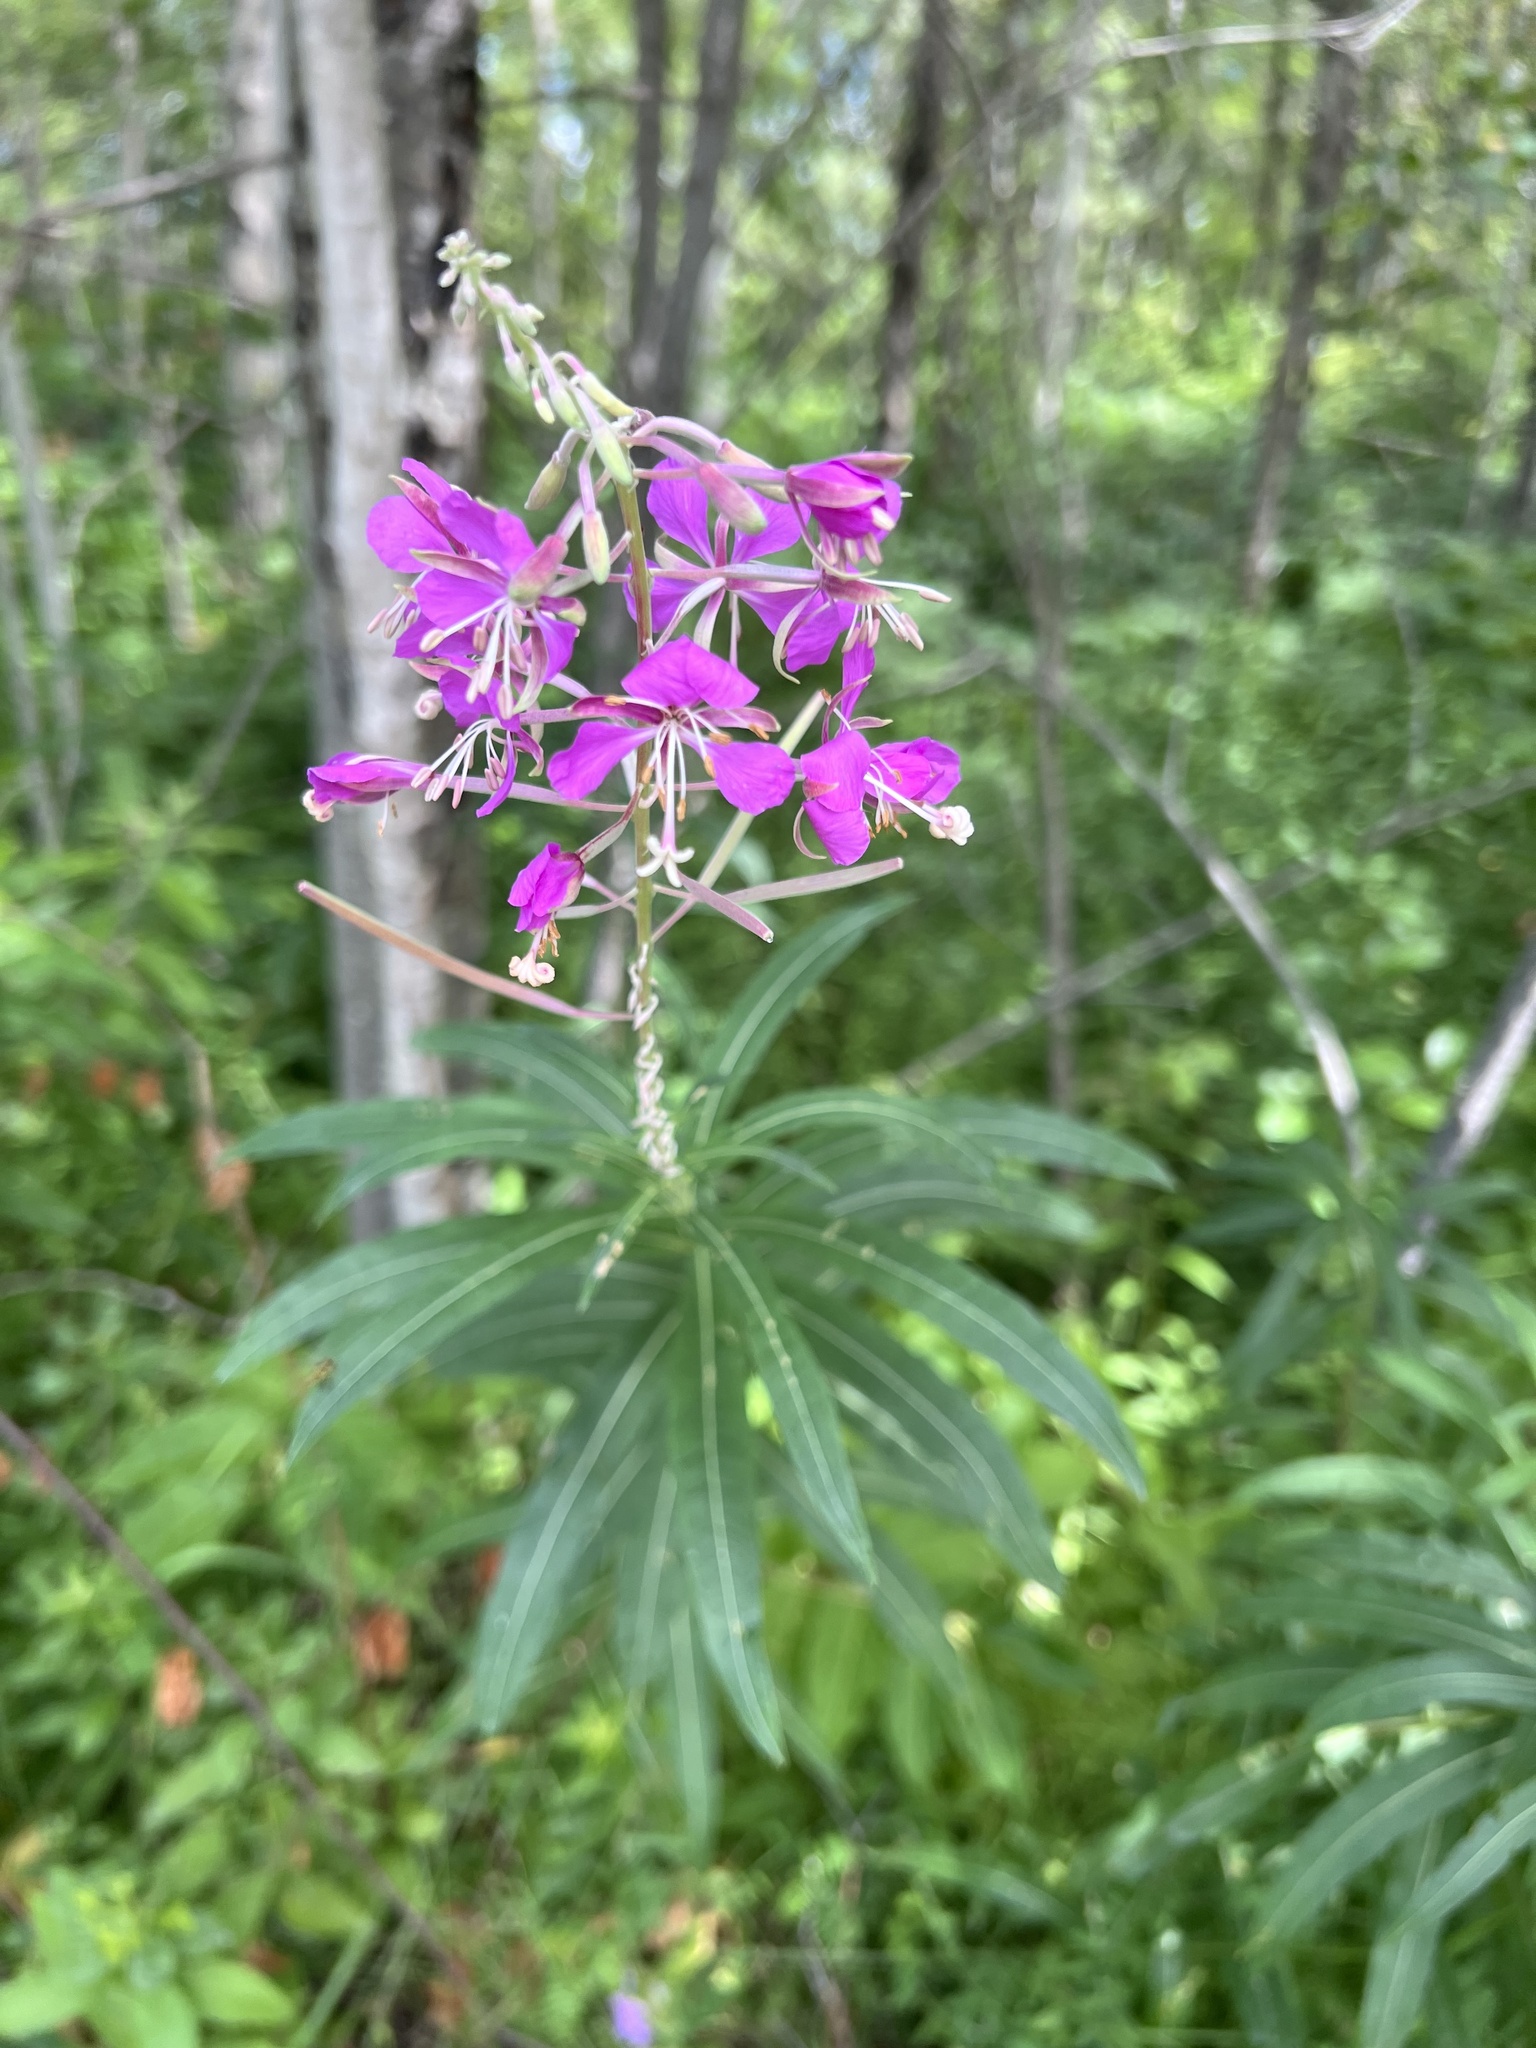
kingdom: Plantae
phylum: Tracheophyta
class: Magnoliopsida
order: Myrtales
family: Onagraceae
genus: Chamaenerion
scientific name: Chamaenerion angustifolium
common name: Fireweed
